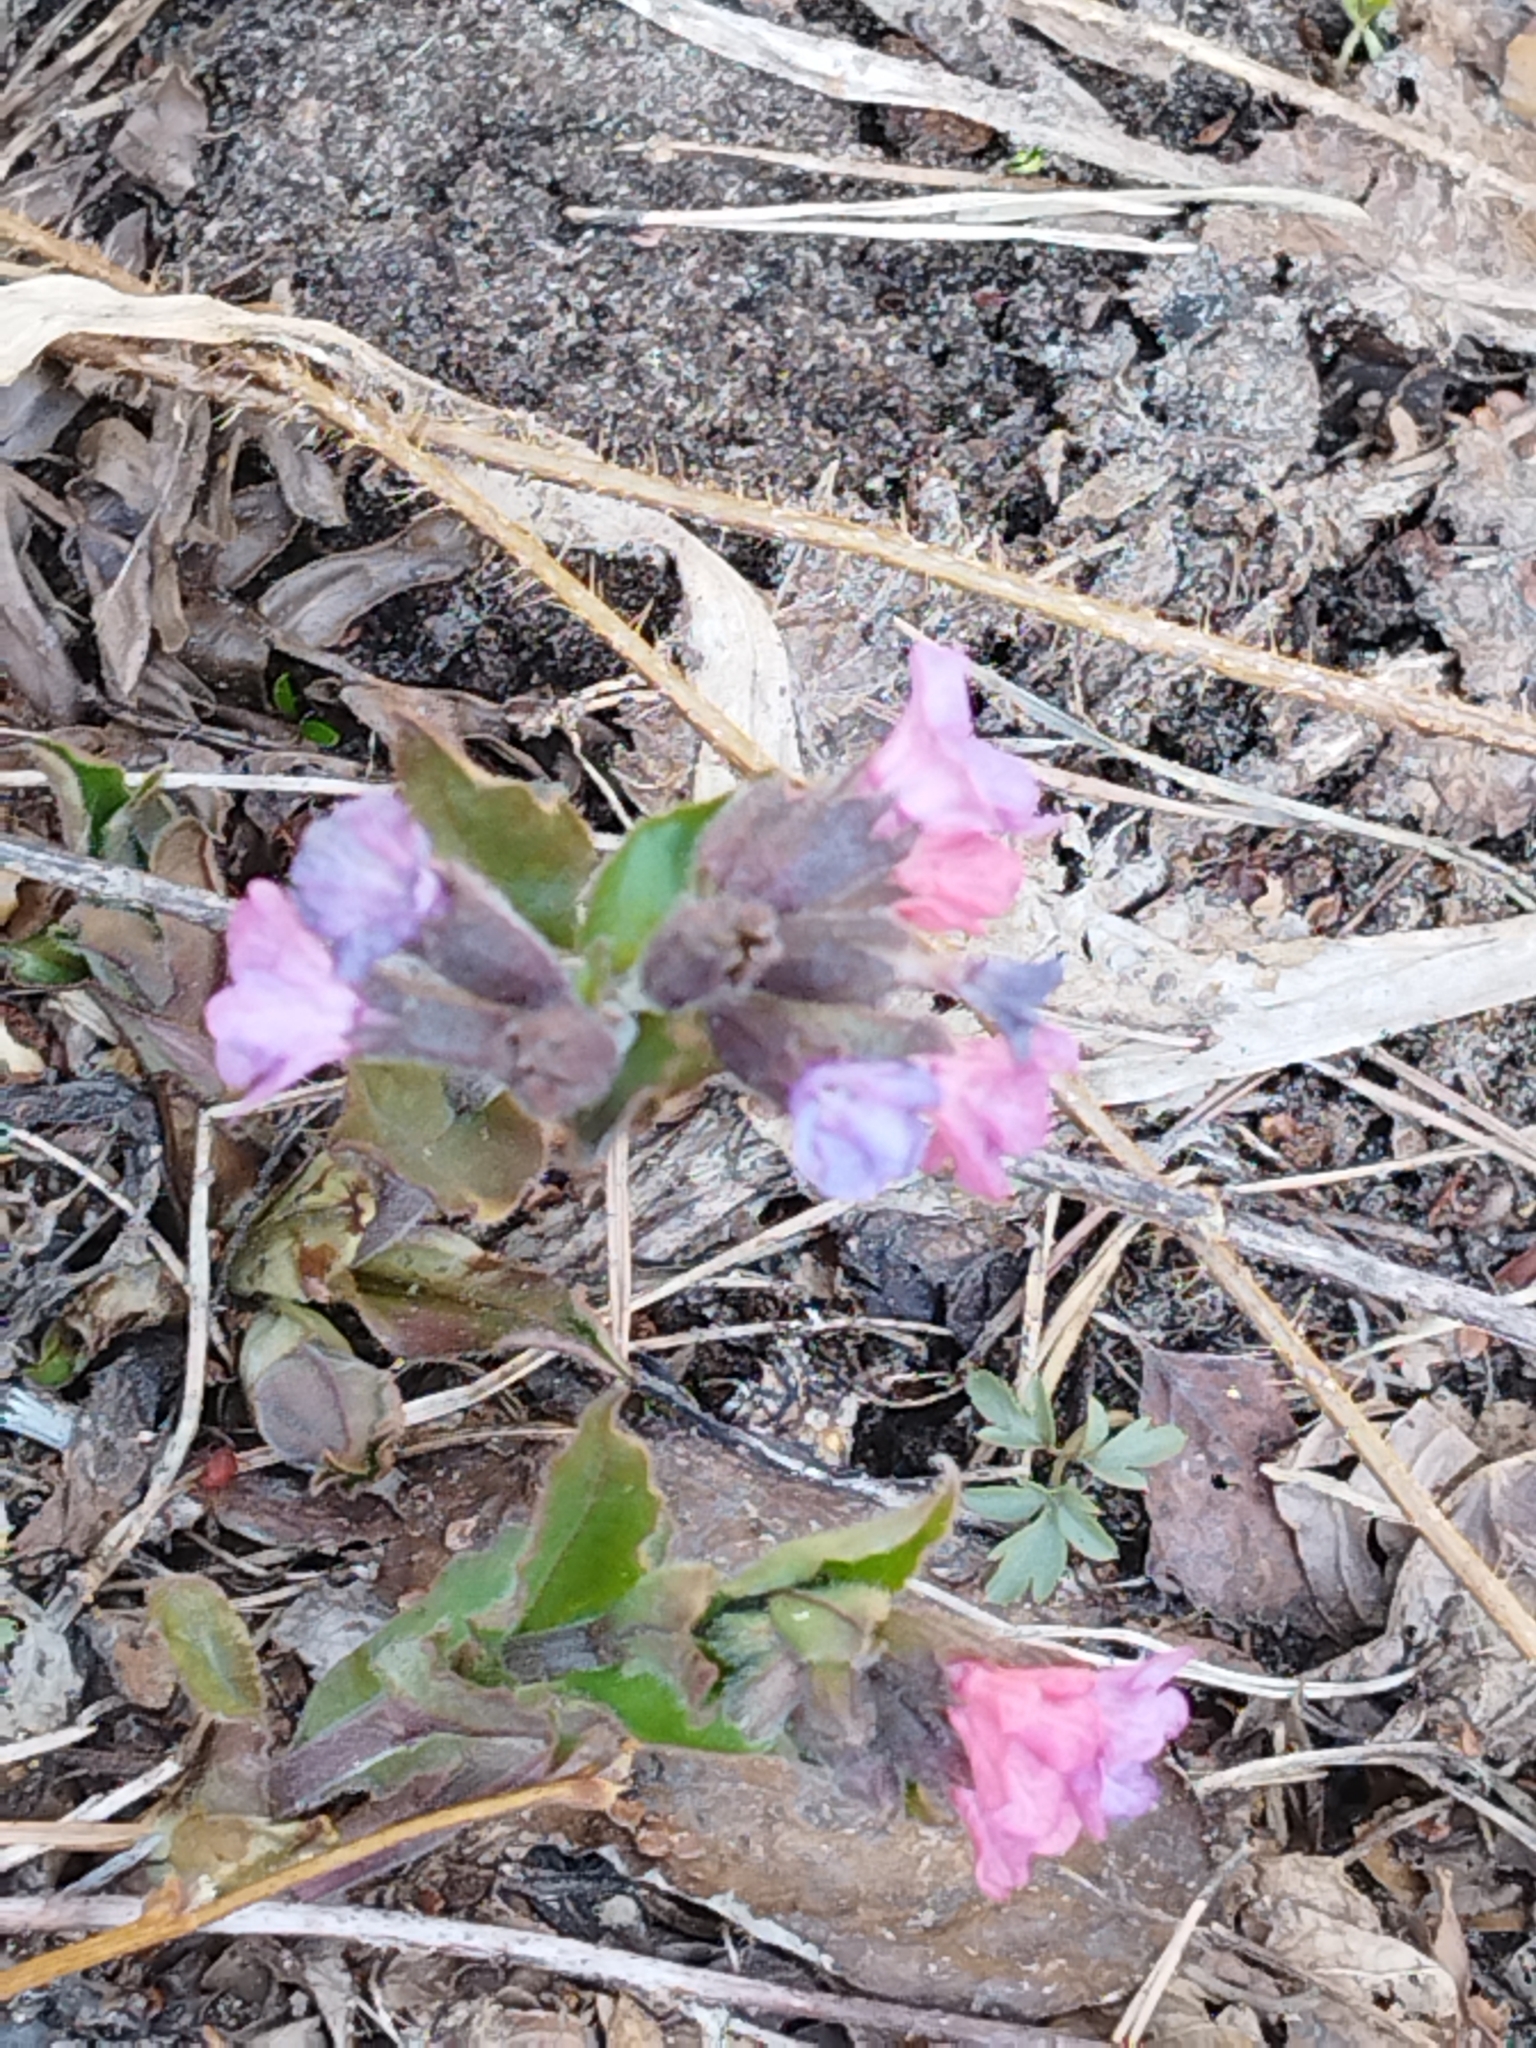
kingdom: Plantae
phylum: Tracheophyta
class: Magnoliopsida
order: Boraginales
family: Boraginaceae
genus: Pulmonaria
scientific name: Pulmonaria obscura
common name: Suffolk lungwort
